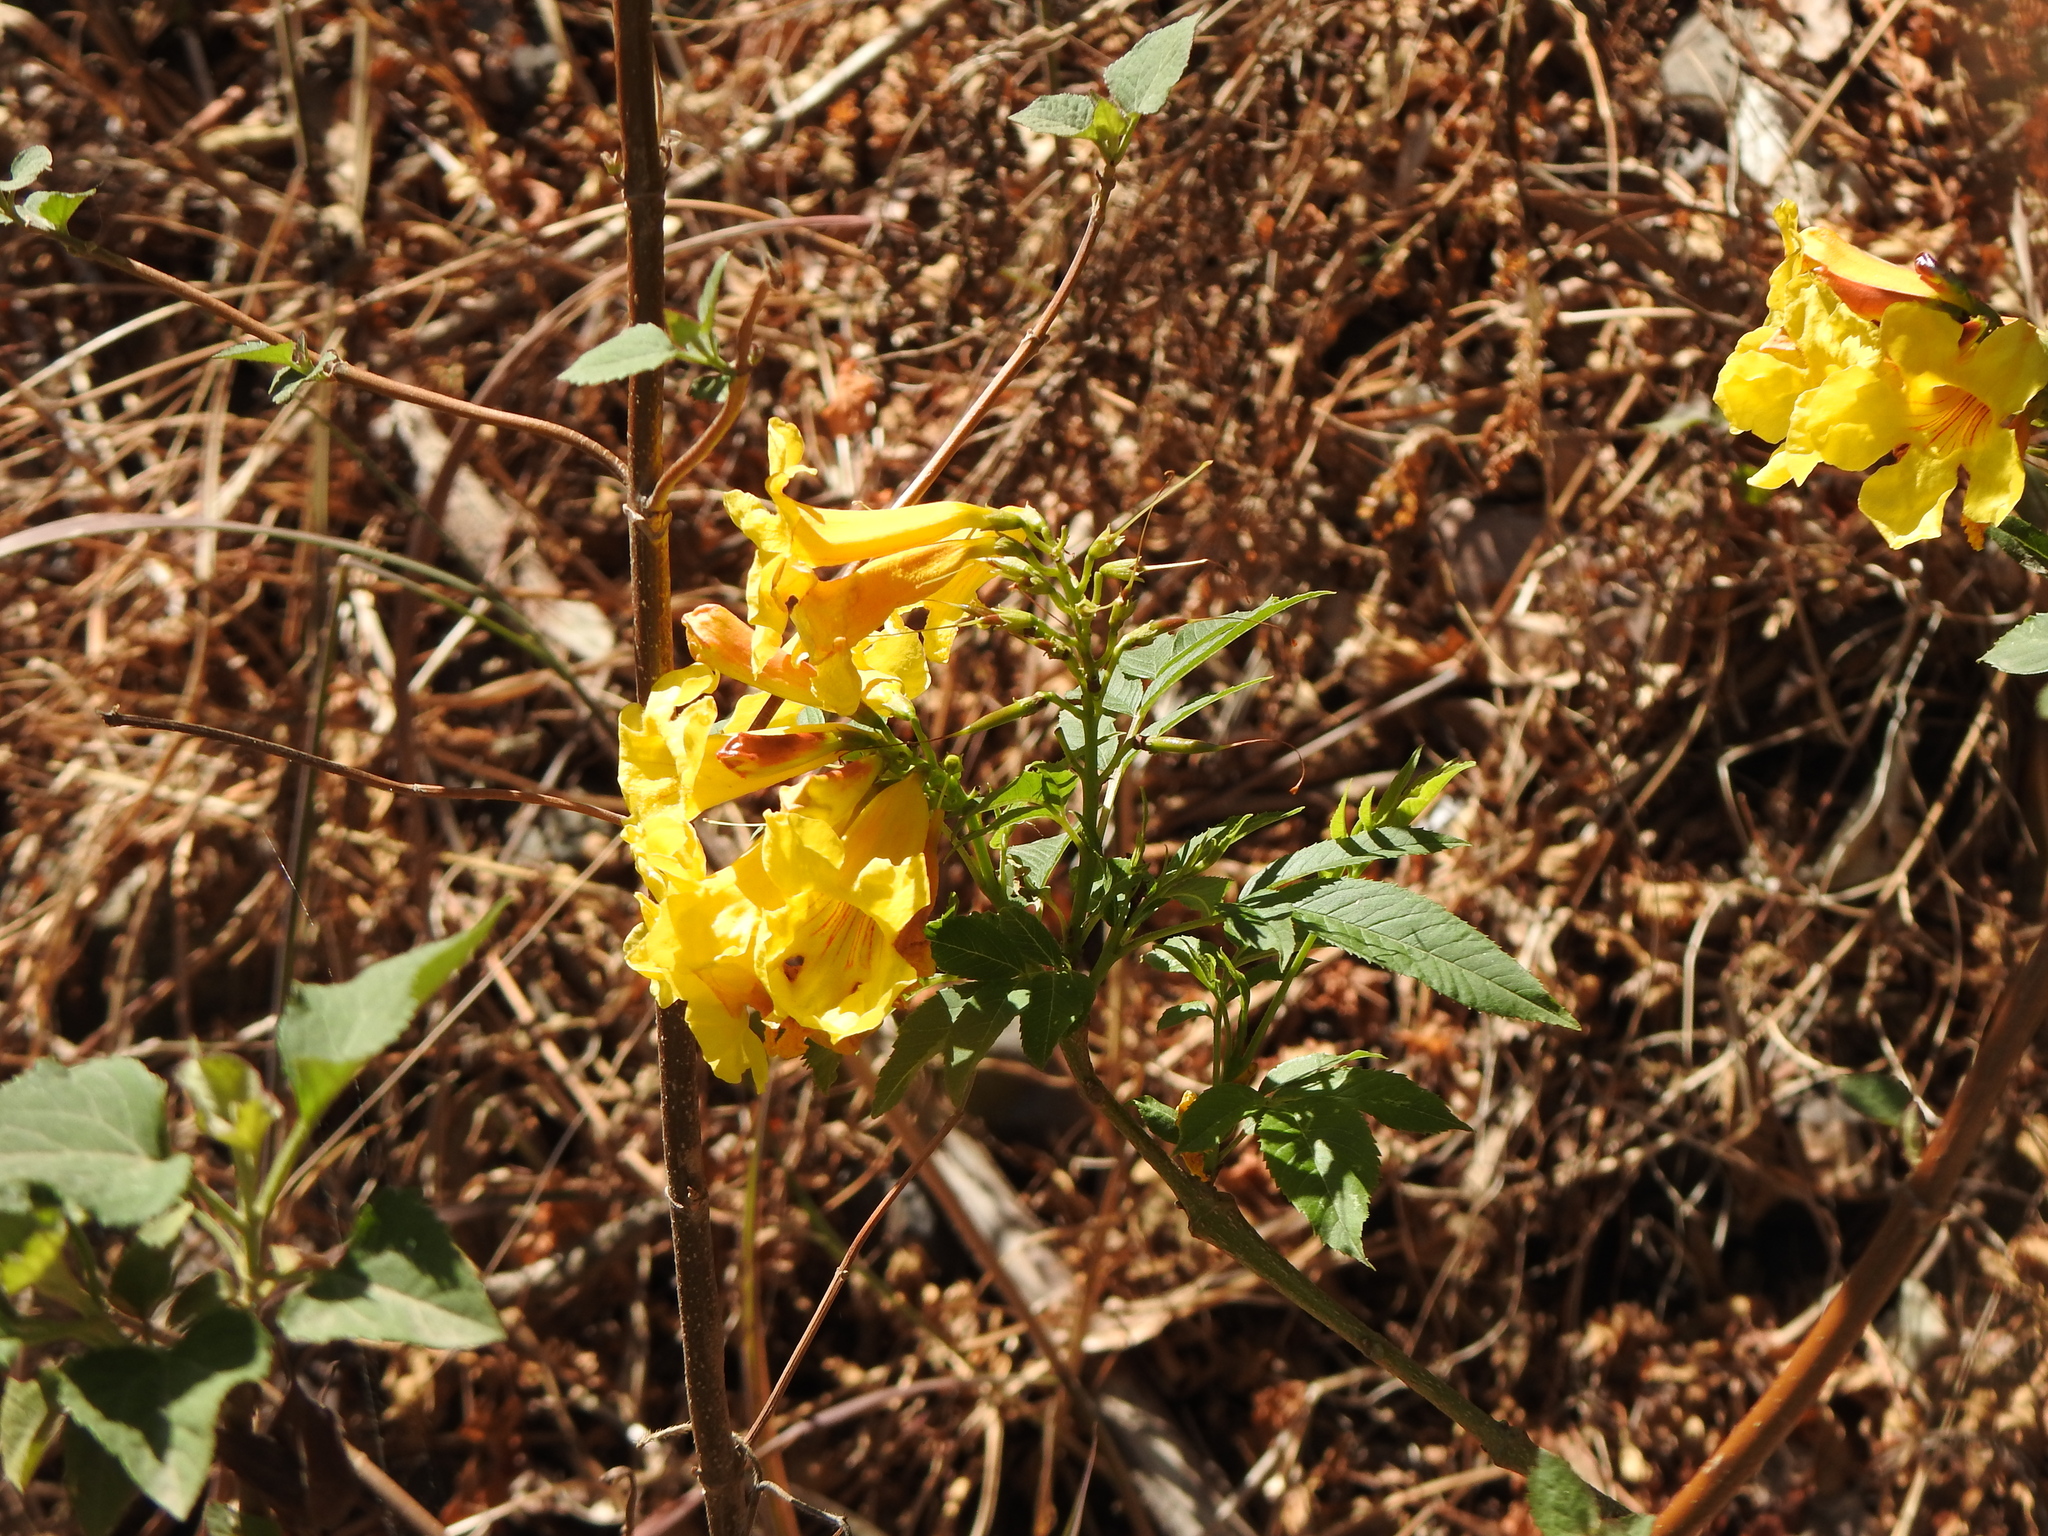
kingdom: Plantae
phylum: Tracheophyta
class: Magnoliopsida
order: Lamiales
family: Bignoniaceae
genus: Tecoma
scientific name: Tecoma stans
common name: Yellow trumpetbush
